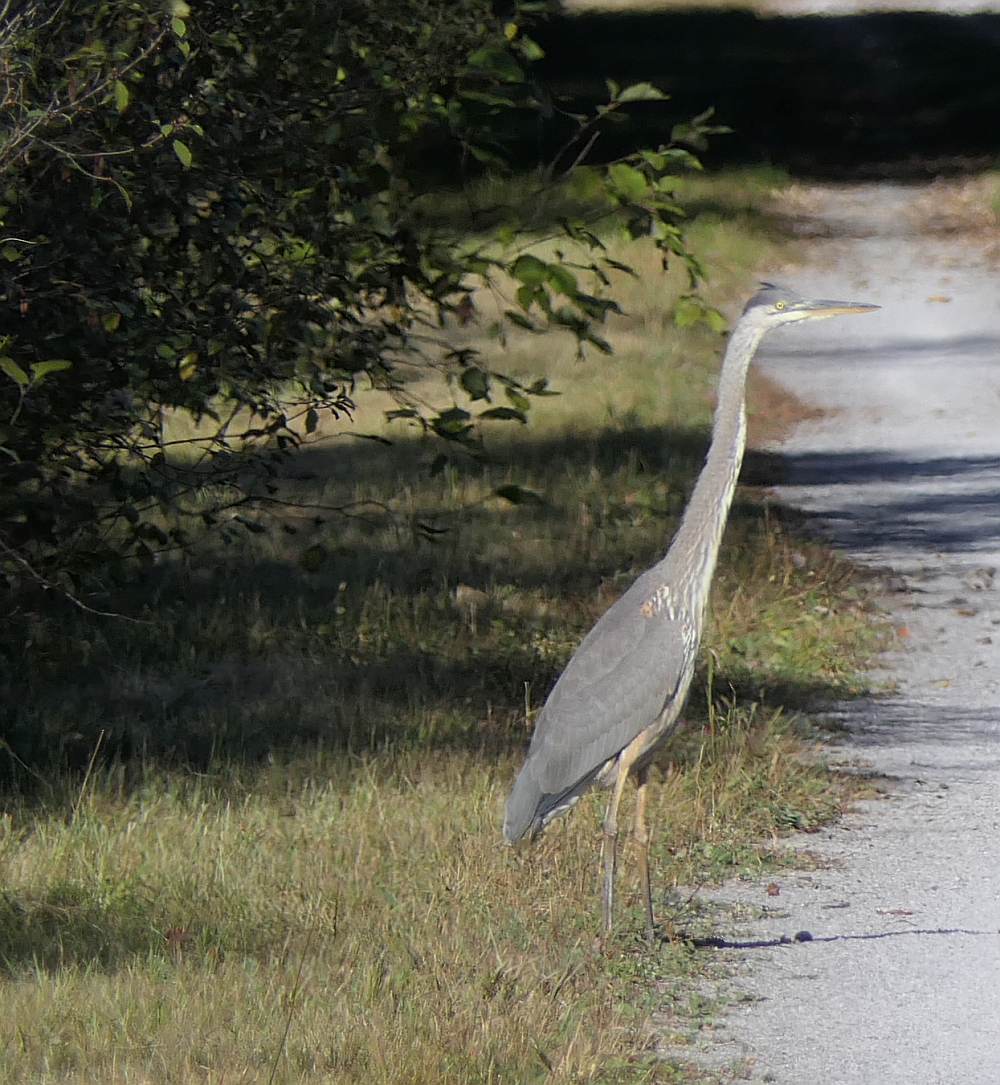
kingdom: Animalia
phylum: Chordata
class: Aves
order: Pelecaniformes
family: Ardeidae
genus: Ardea
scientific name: Ardea herodias
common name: Great blue heron
